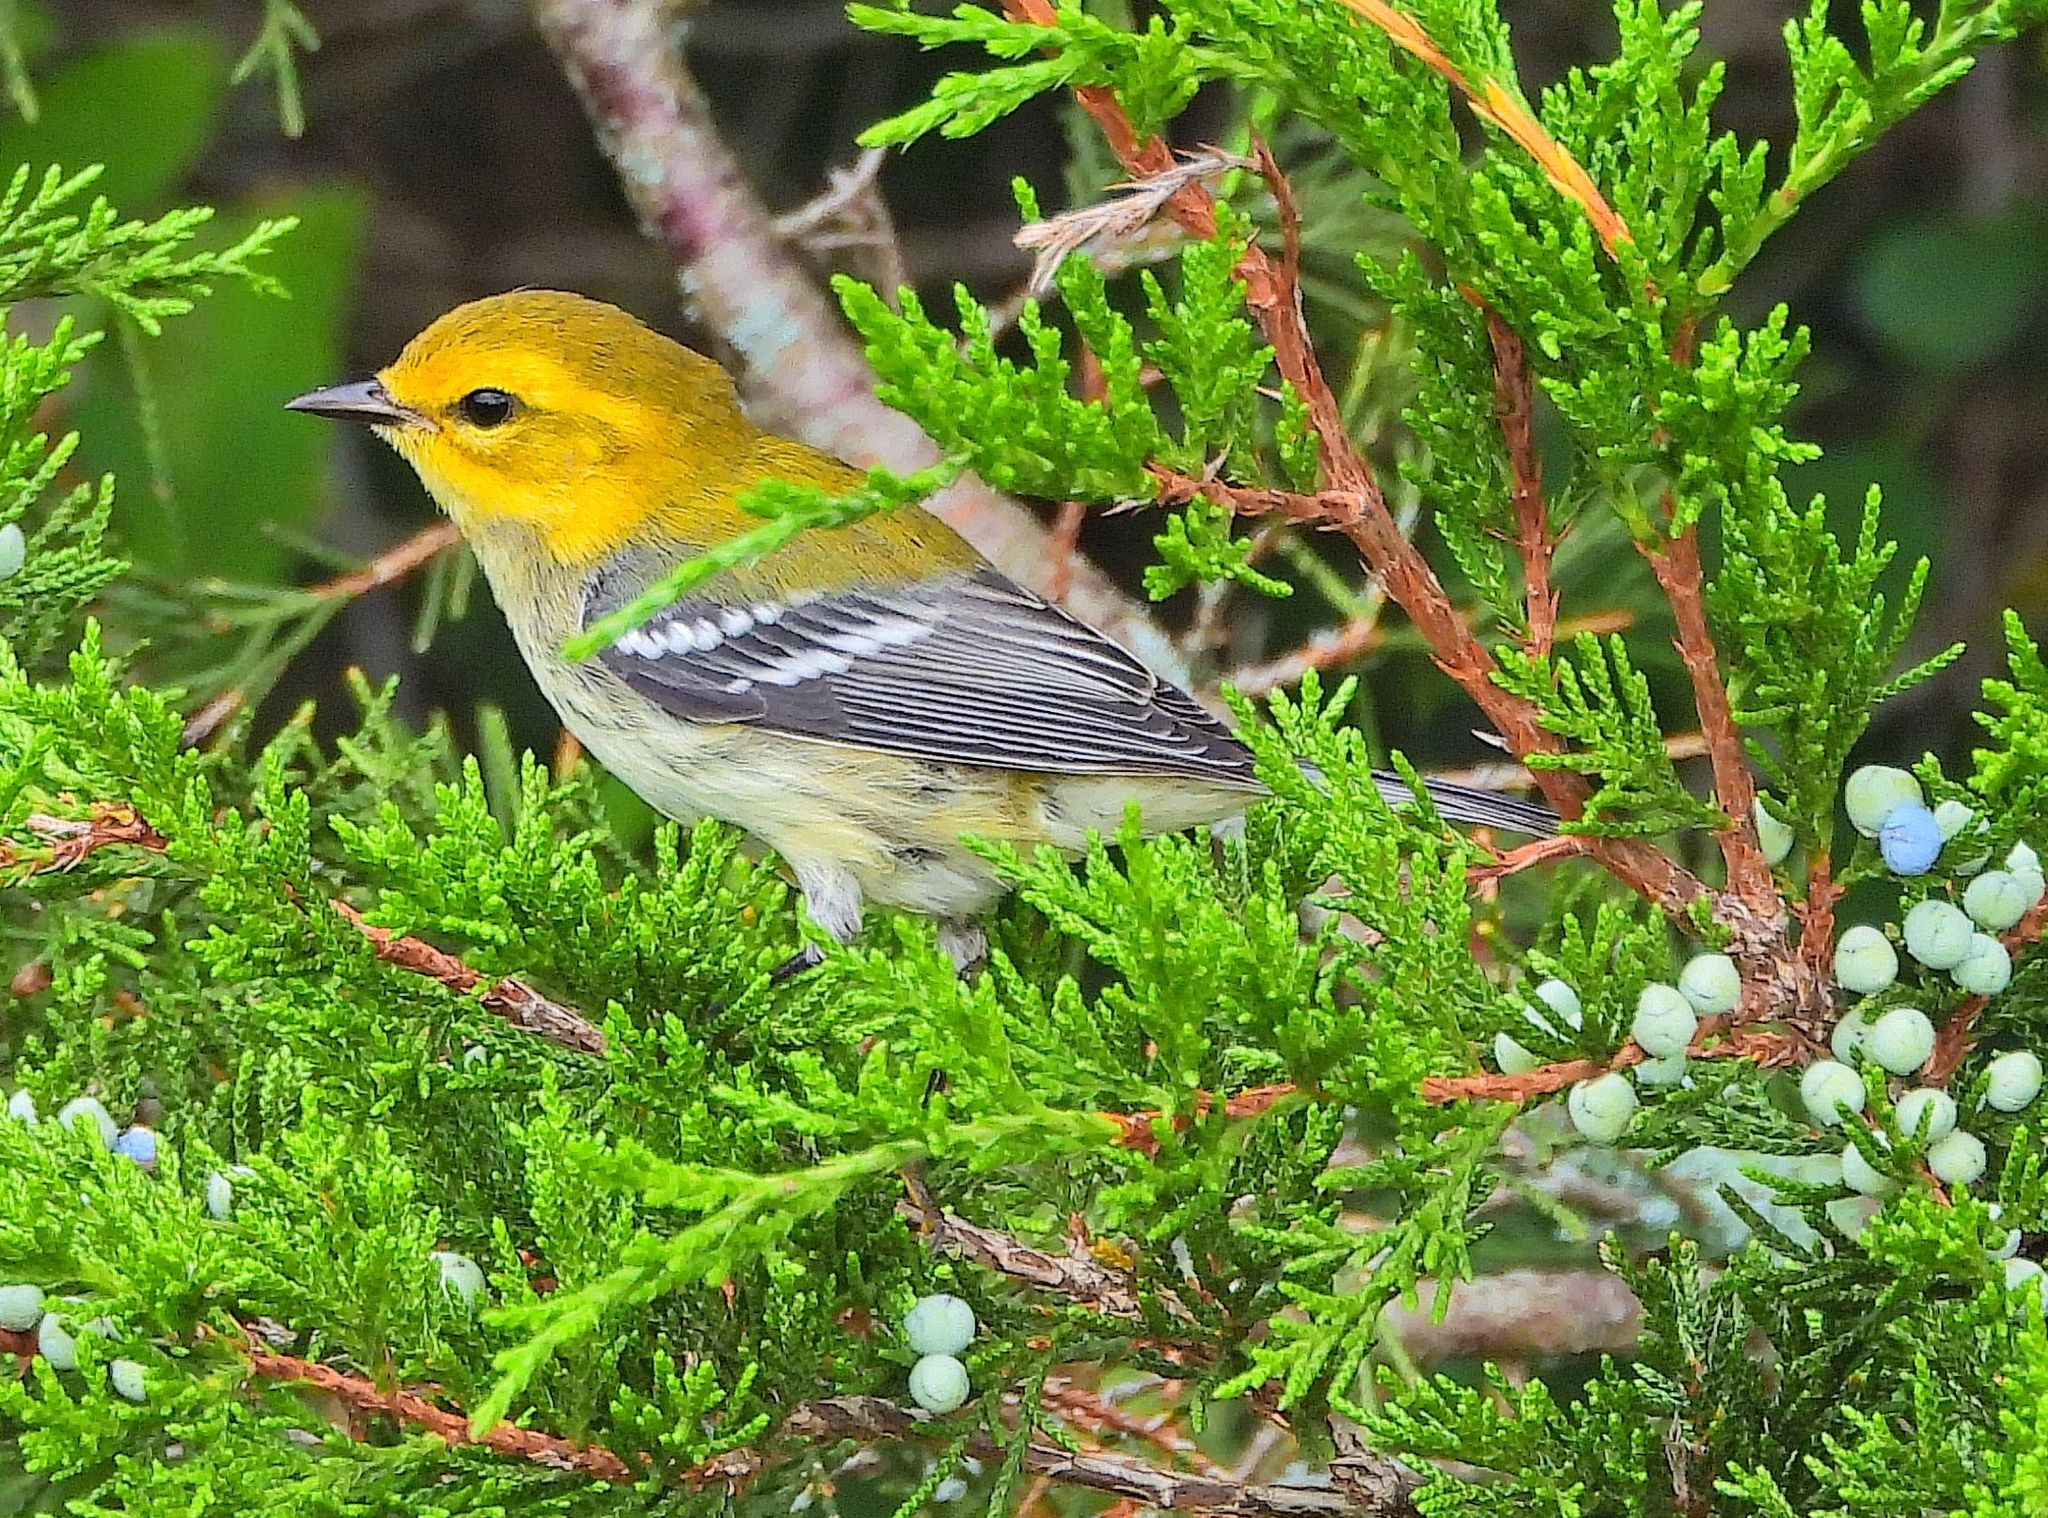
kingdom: Animalia
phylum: Chordata
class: Aves
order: Passeriformes
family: Parulidae
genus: Setophaga
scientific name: Setophaga virens
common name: Black-throated green warbler
